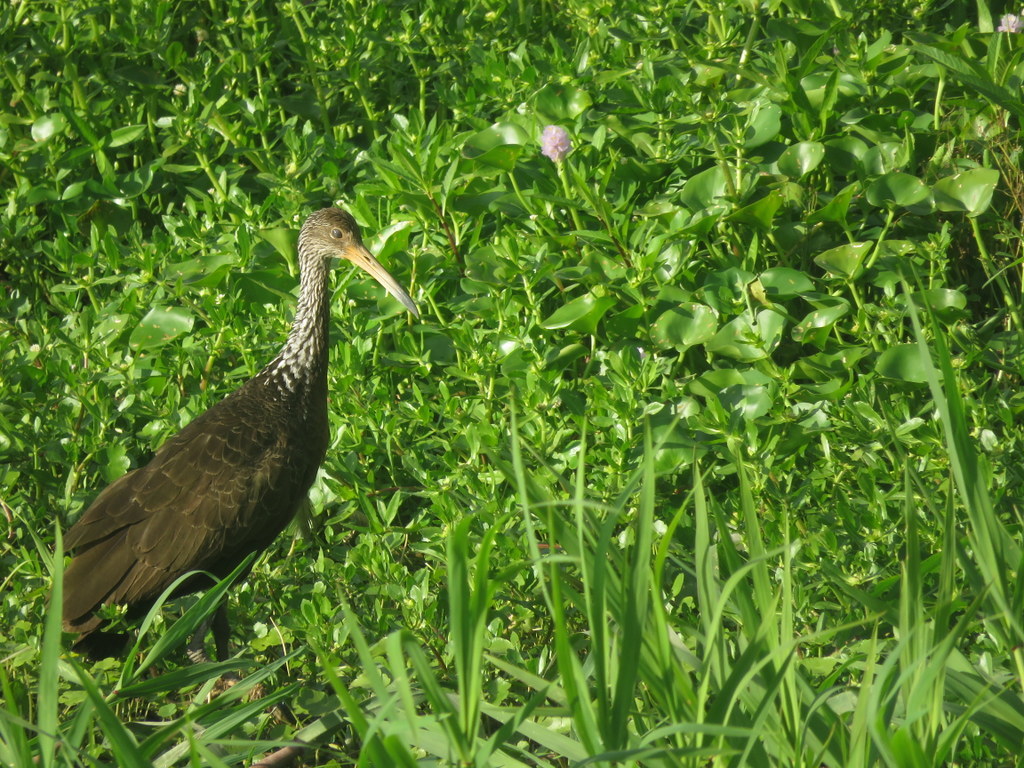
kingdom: Animalia
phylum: Chordata
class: Aves
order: Gruiformes
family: Aramidae
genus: Aramus
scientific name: Aramus guarauna
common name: Limpkin
